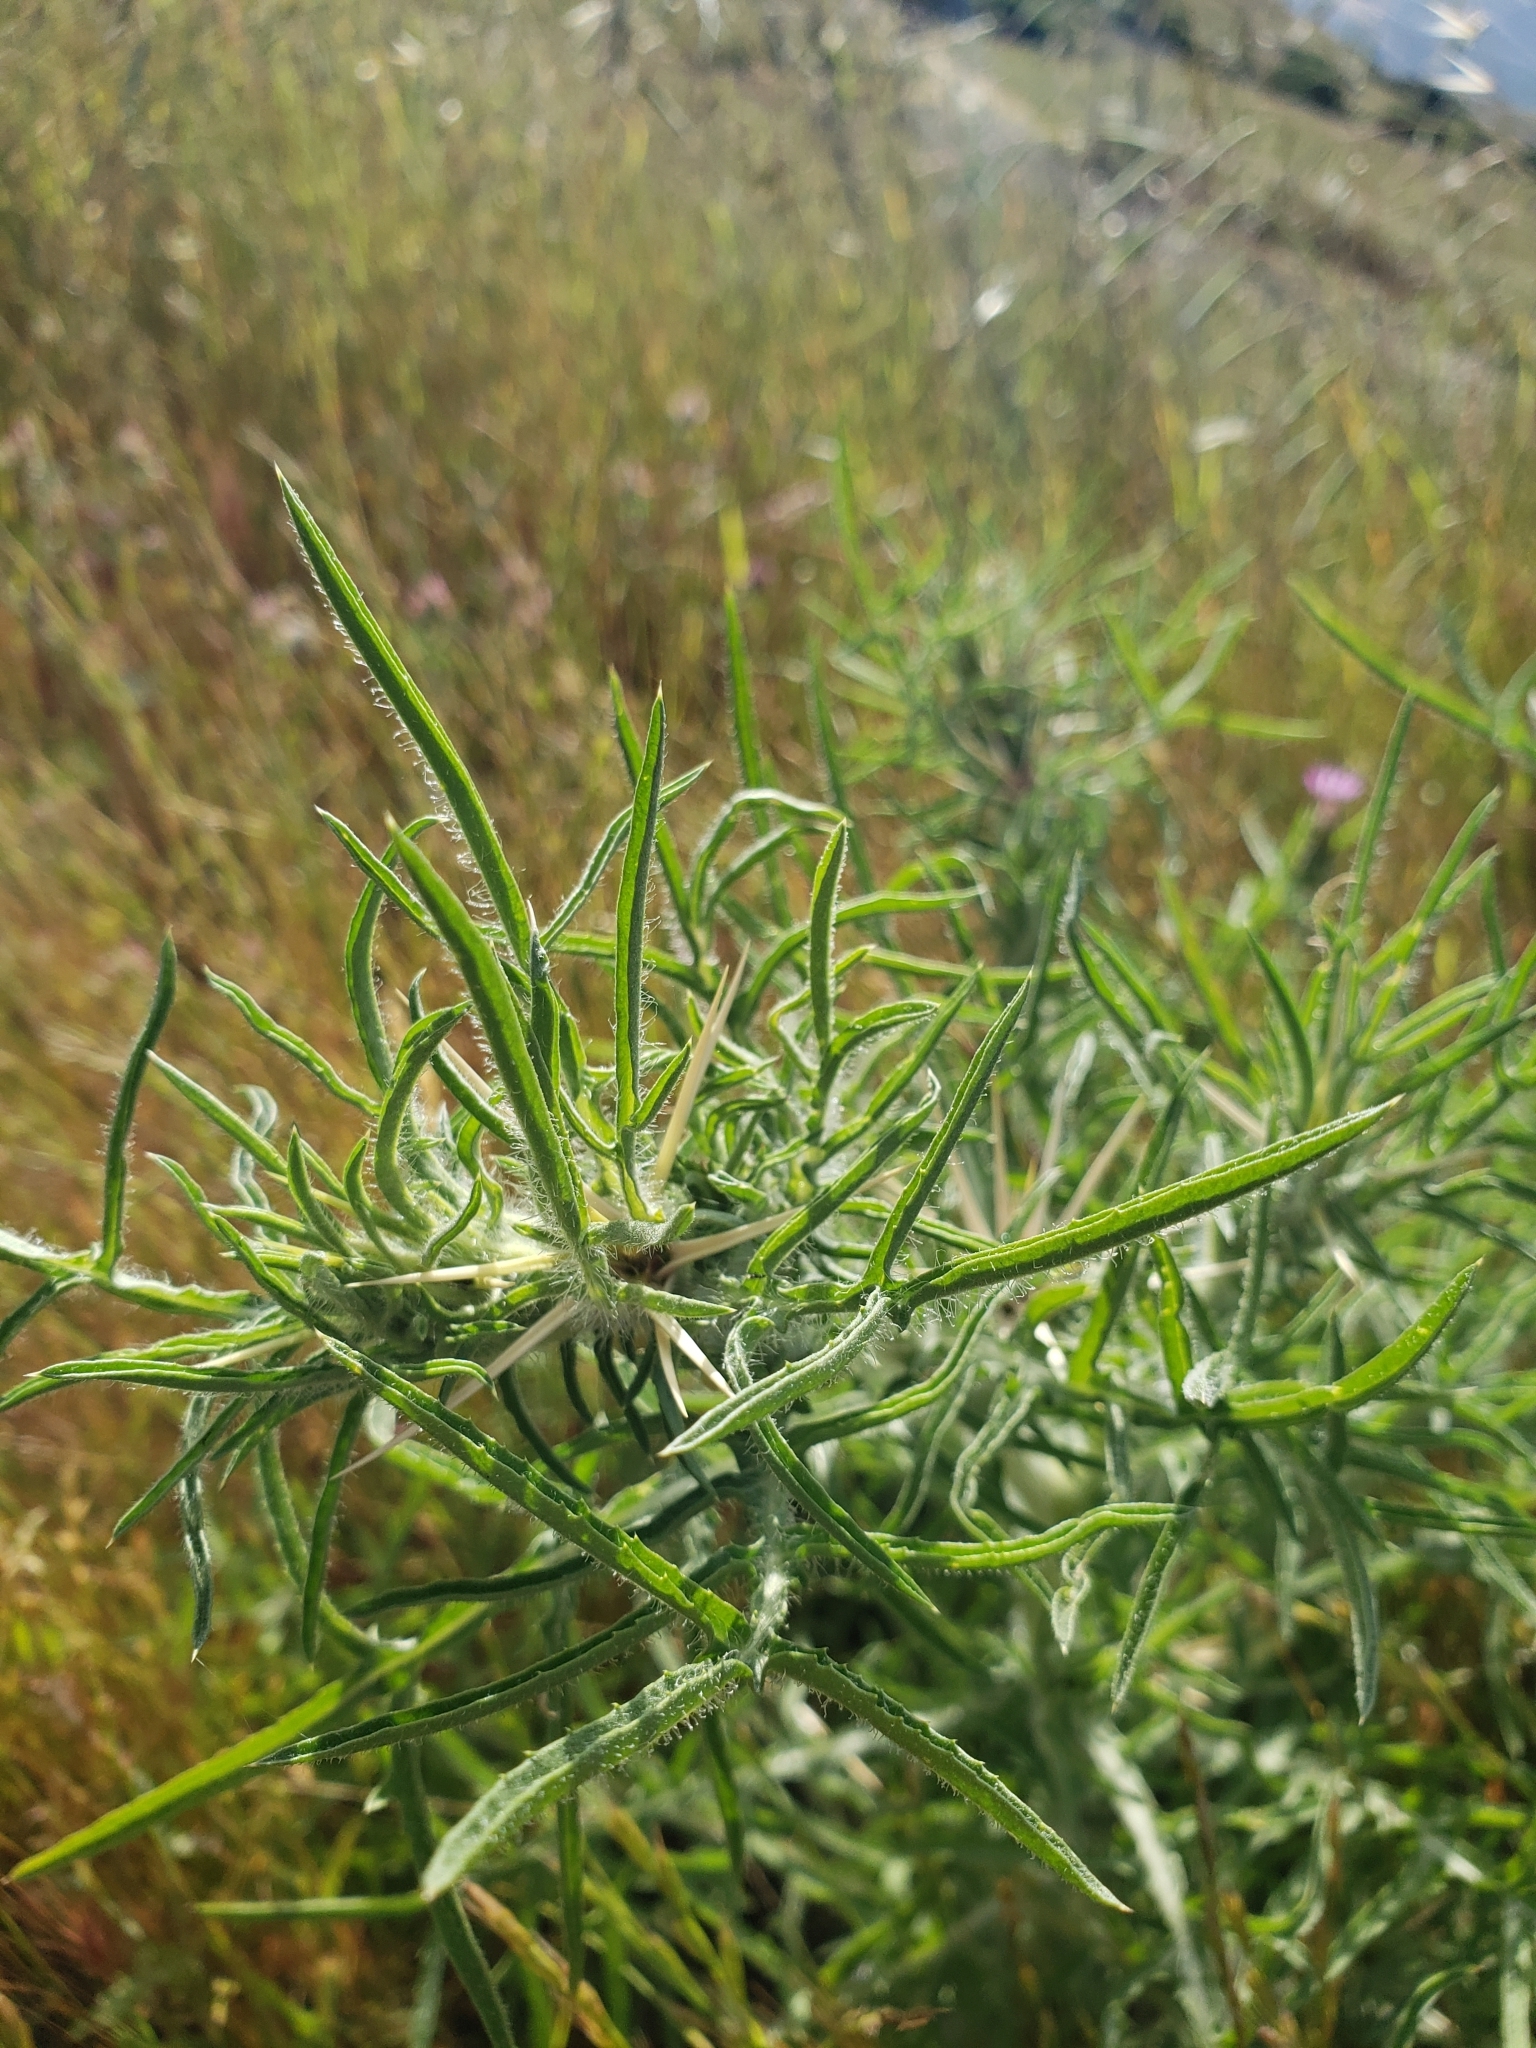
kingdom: Plantae
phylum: Tracheophyta
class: Magnoliopsida
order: Asterales
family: Asteraceae
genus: Centaurea
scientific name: Centaurea calcitrapa
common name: Red star-thistle
